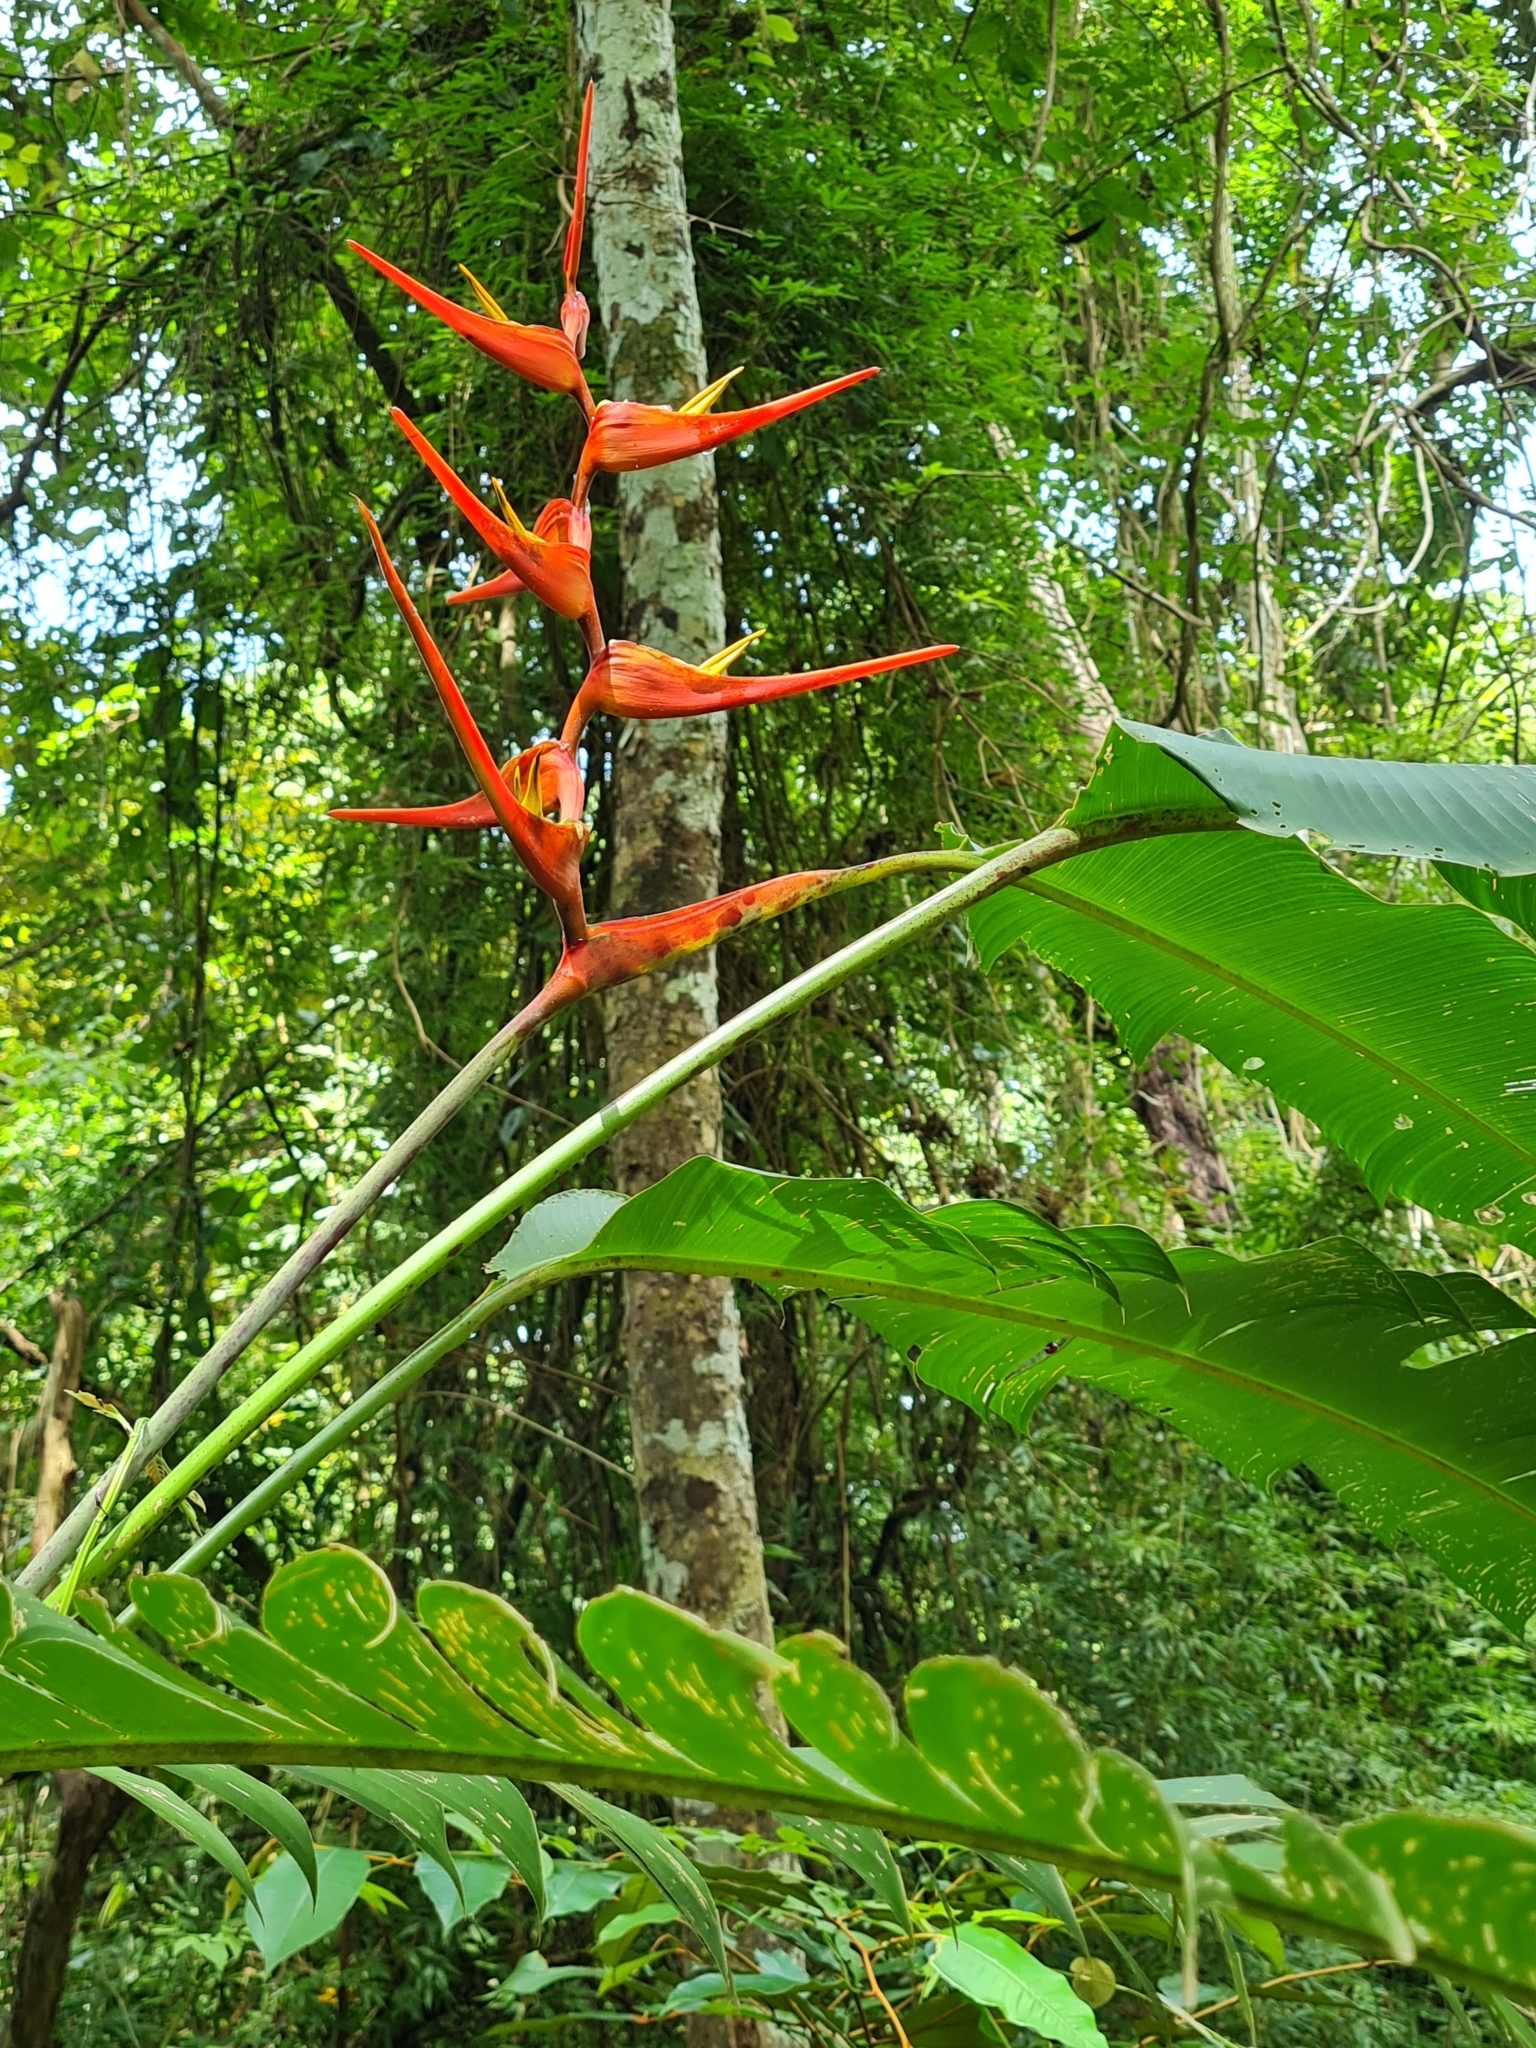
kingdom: Plantae
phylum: Tracheophyta
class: Liliopsida
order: Zingiberales
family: Heliconiaceae
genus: Heliconia
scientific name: Heliconia latispatha
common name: Expanded lobsterclaw
